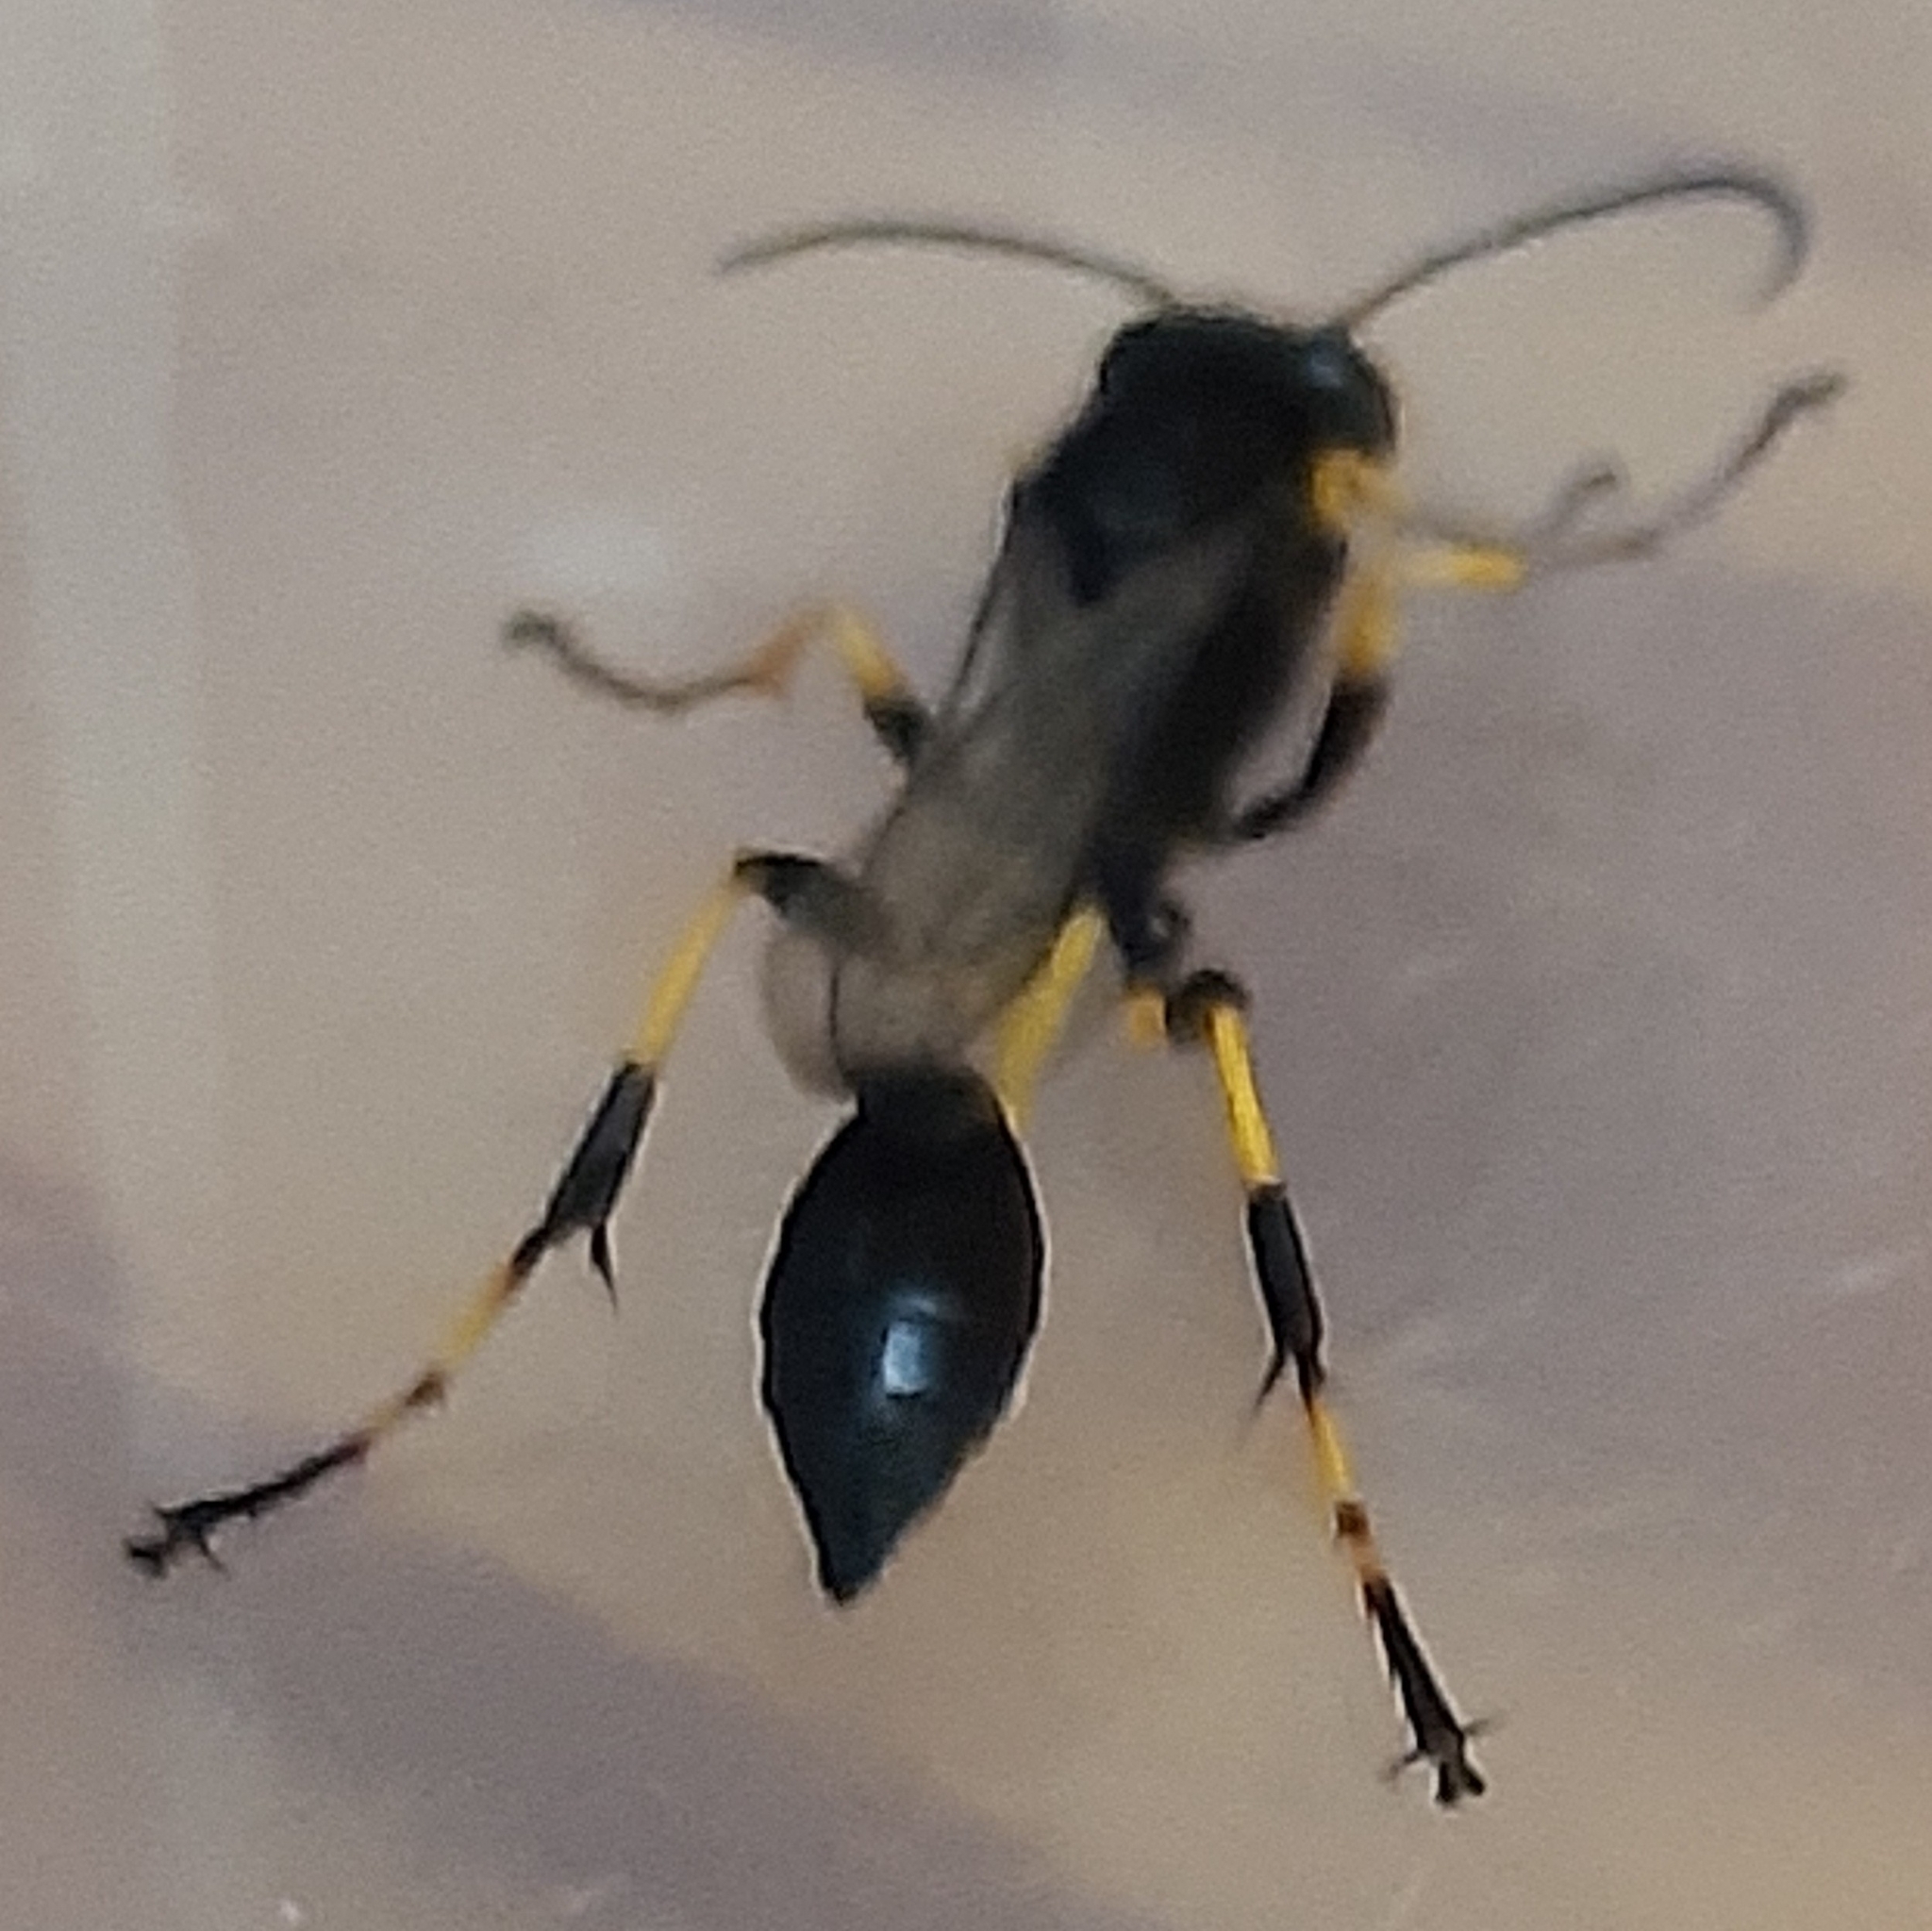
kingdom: Animalia
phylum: Arthropoda
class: Insecta
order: Hymenoptera
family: Sphecidae
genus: Sceliphron
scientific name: Sceliphron spirifex
